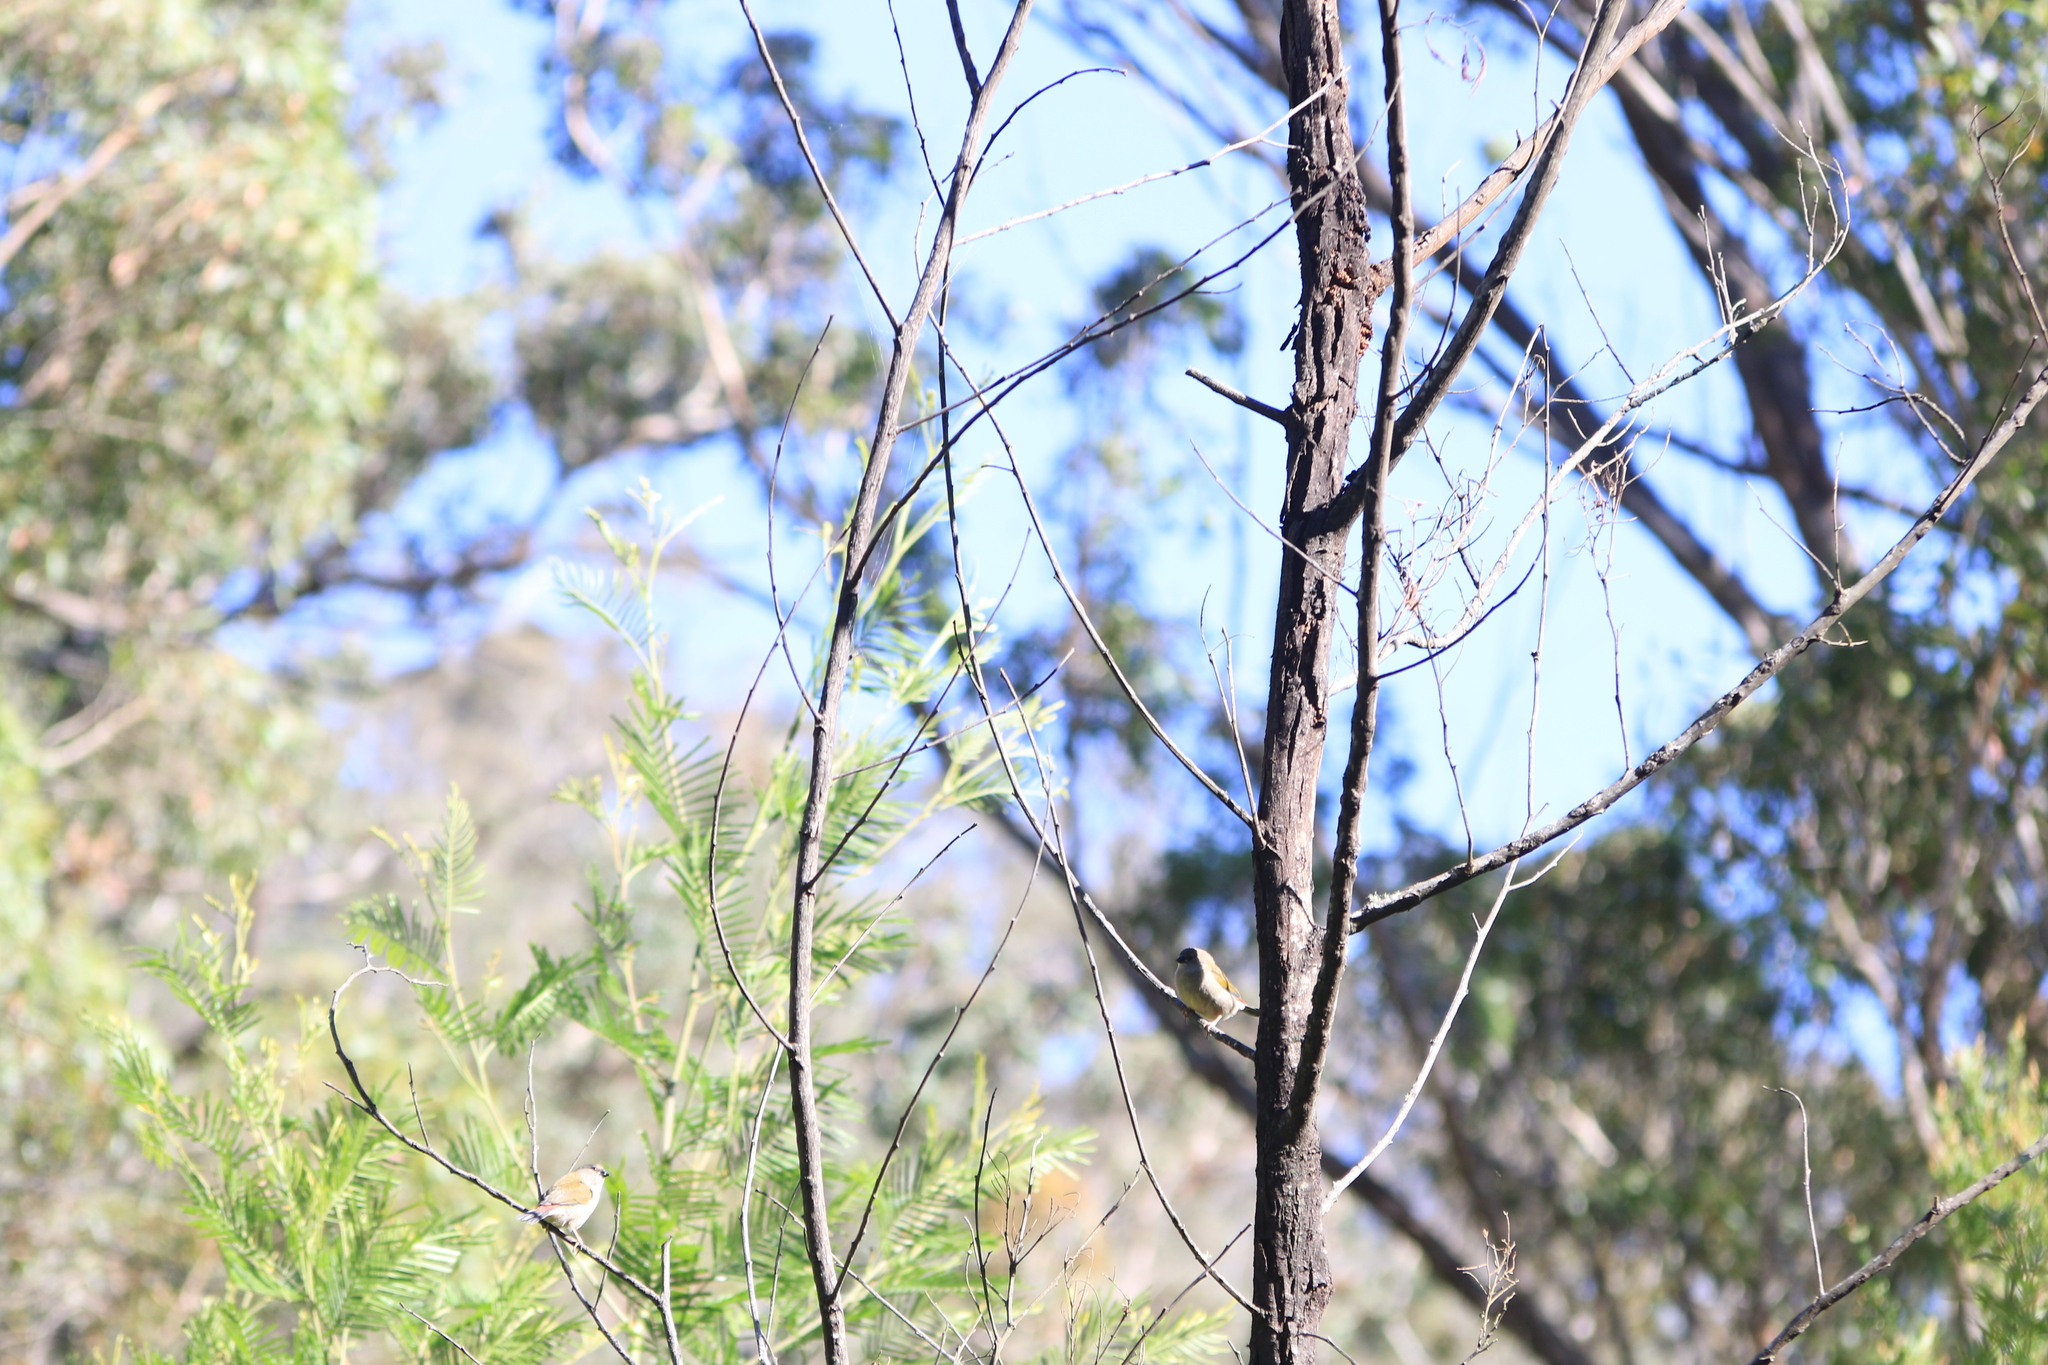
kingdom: Animalia
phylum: Chordata
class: Aves
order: Passeriformes
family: Estrildidae
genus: Neochmia
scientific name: Neochmia temporalis
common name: Red-browed finch
